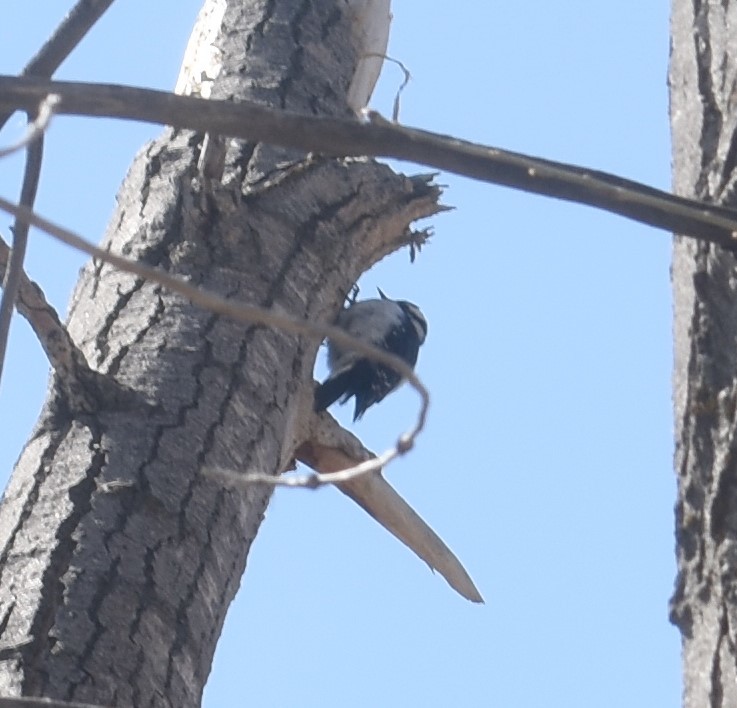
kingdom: Animalia
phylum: Chordata
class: Aves
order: Piciformes
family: Picidae
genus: Dryobates
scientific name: Dryobates pubescens
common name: Downy woodpecker
